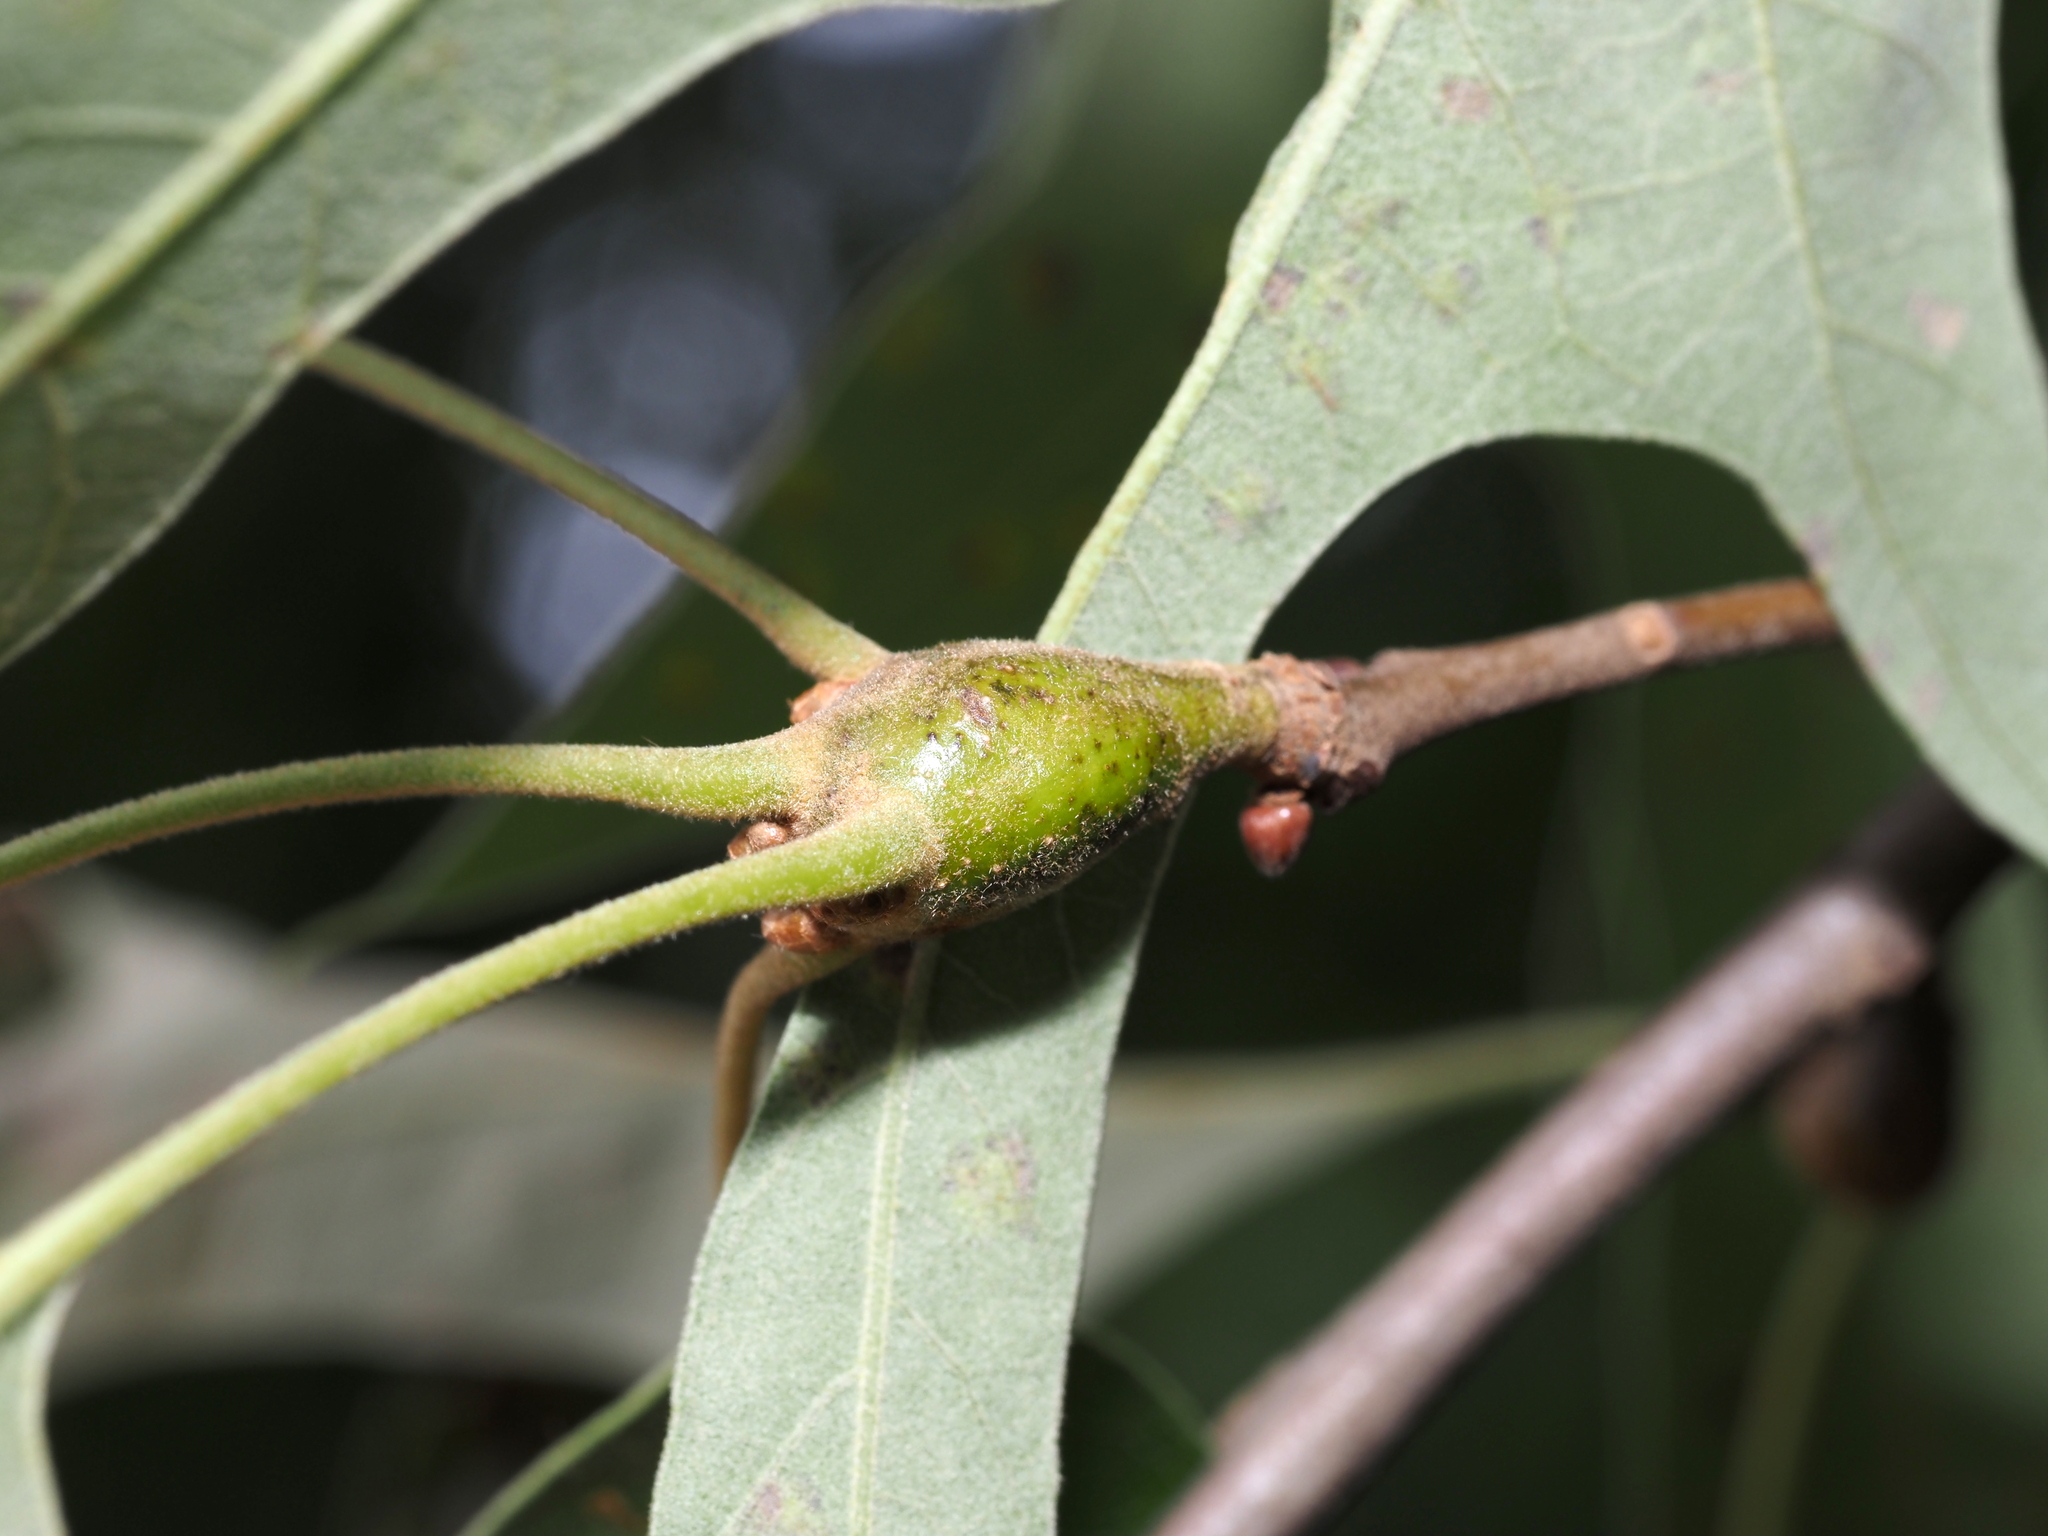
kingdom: Animalia
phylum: Arthropoda
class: Insecta
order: Hymenoptera
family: Cynipidae
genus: Zapatella
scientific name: Zapatella quercusphellos
